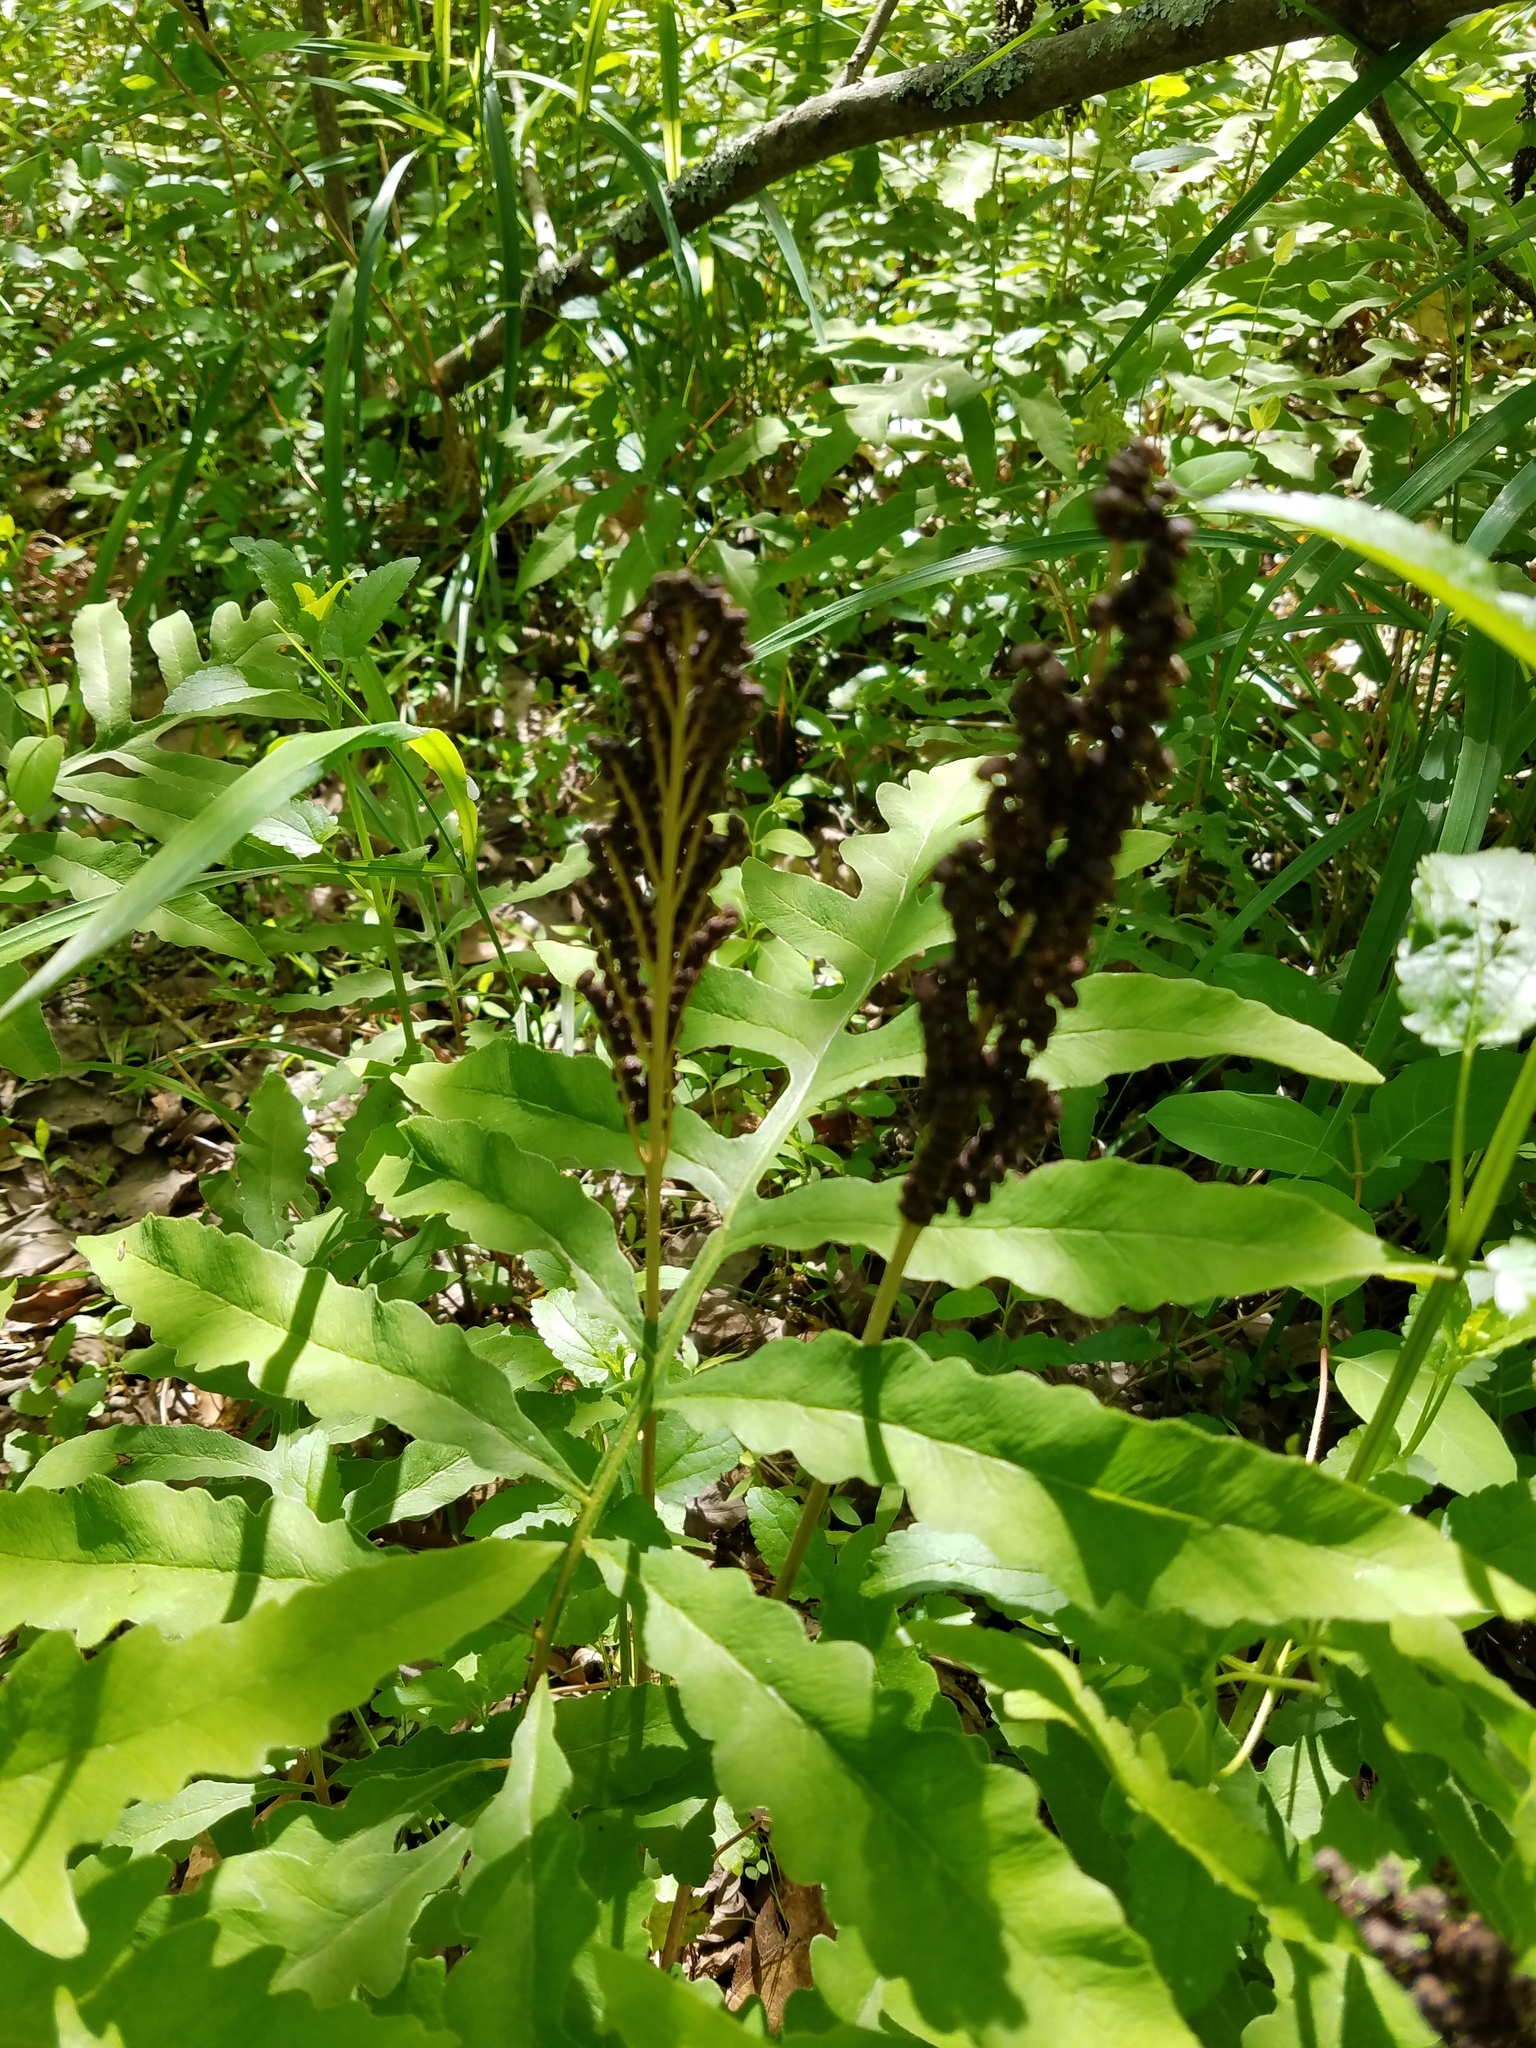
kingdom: Plantae
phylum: Tracheophyta
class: Polypodiopsida
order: Polypodiales
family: Onocleaceae
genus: Onoclea
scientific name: Onoclea sensibilis
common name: Sensitive fern
